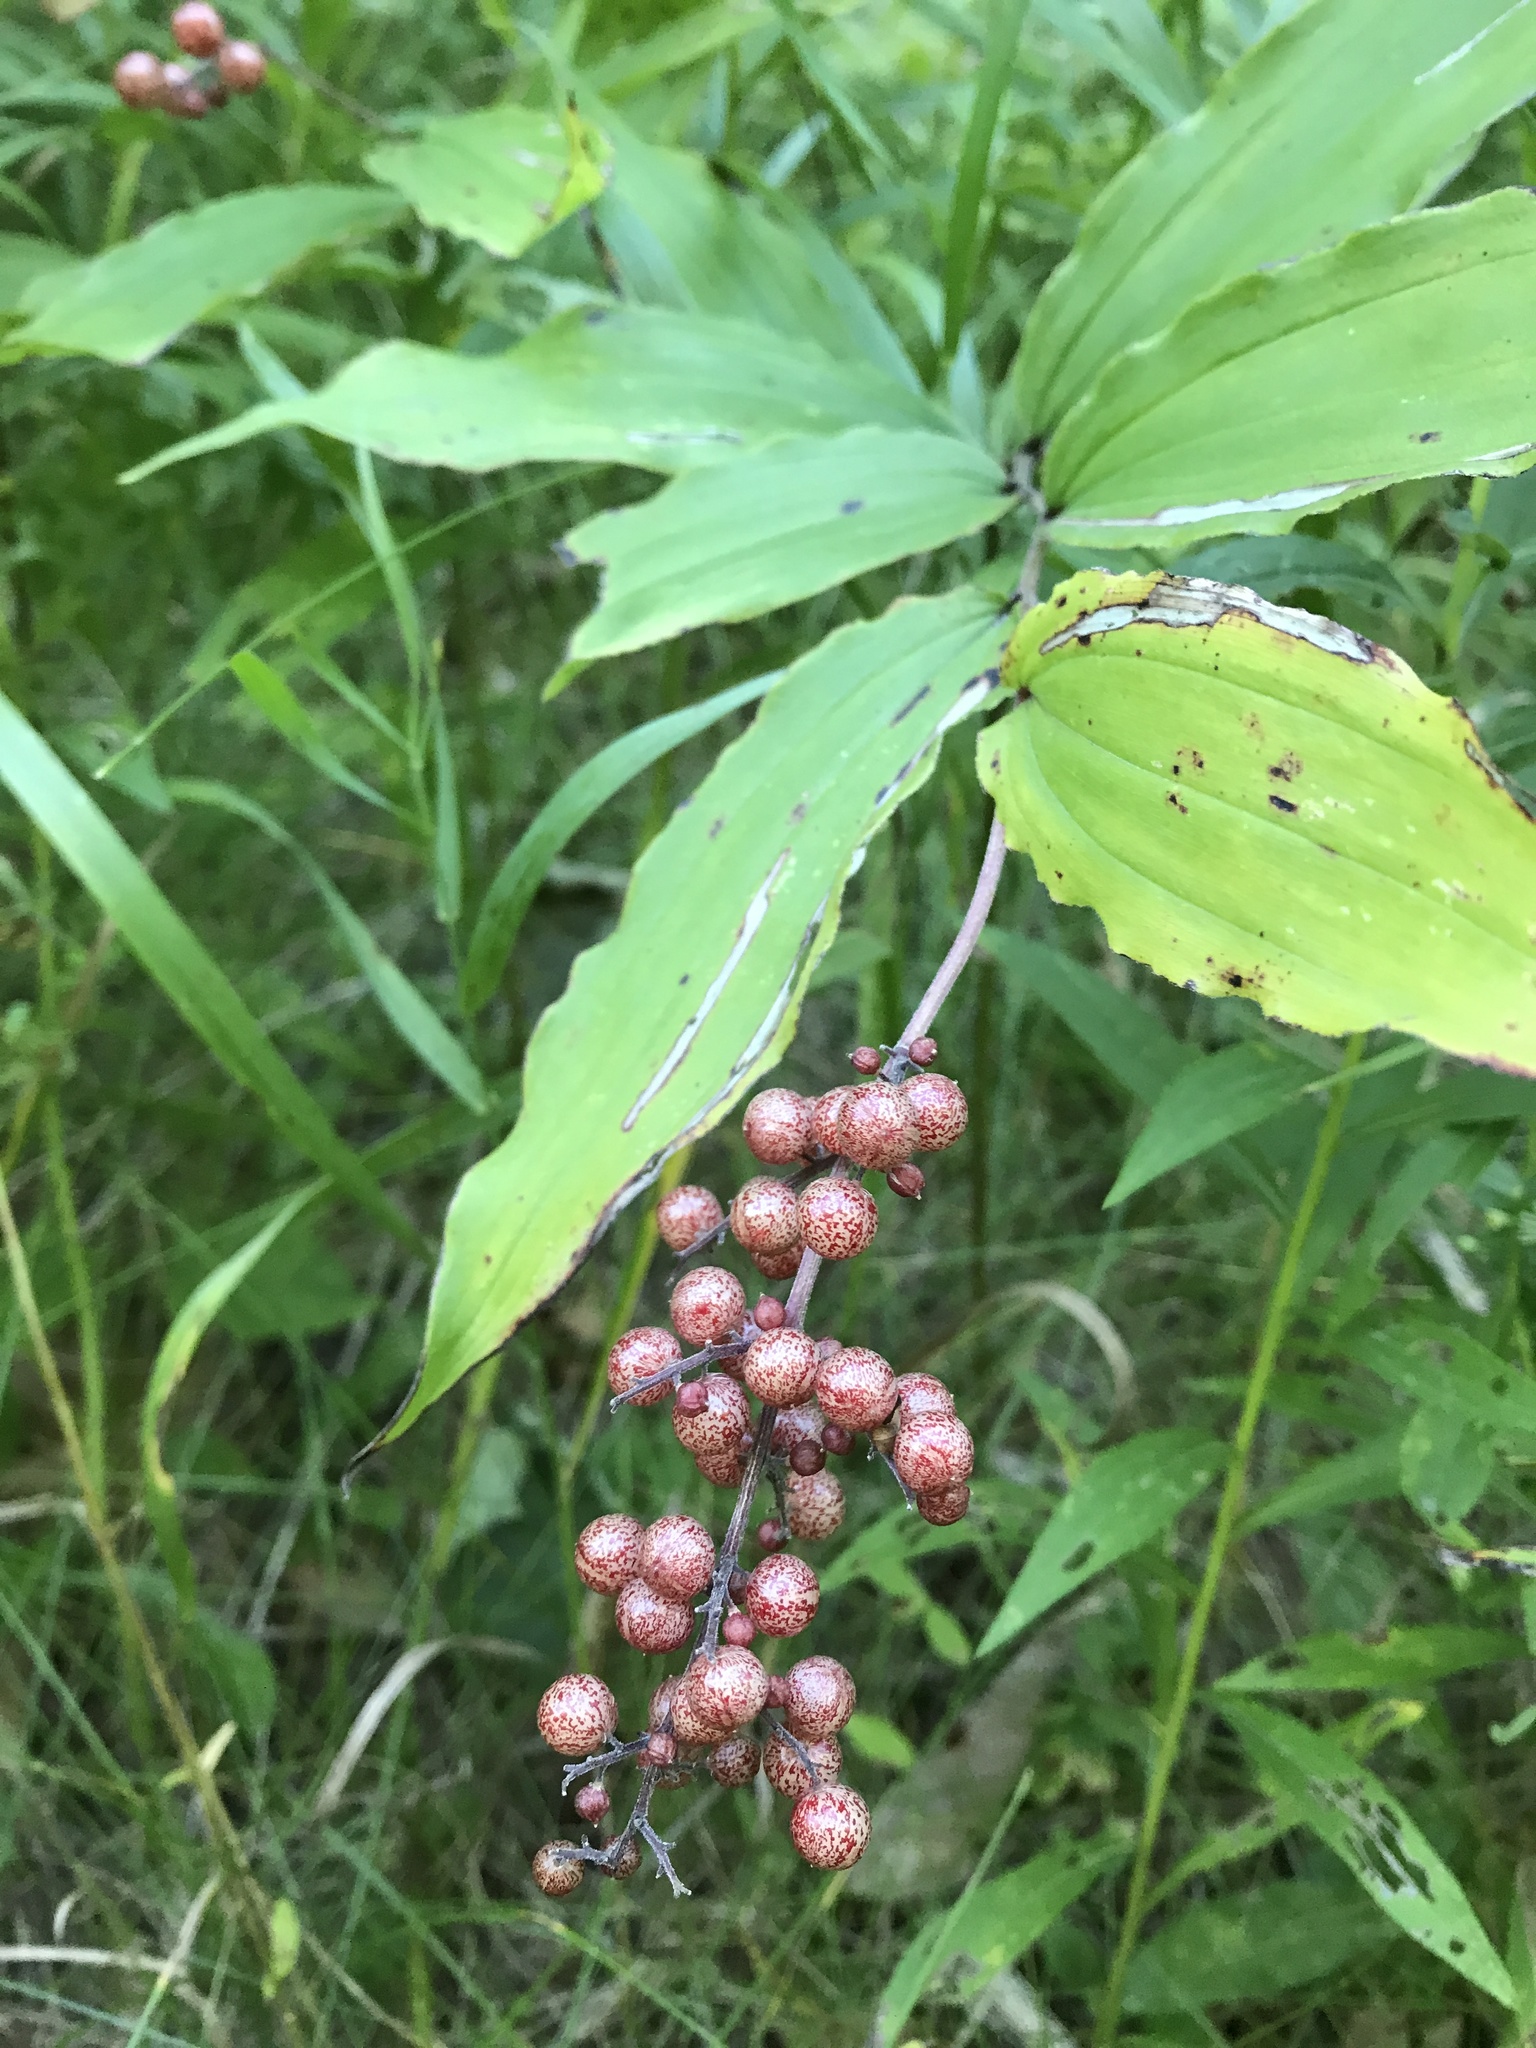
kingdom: Plantae
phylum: Tracheophyta
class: Liliopsida
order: Asparagales
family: Asparagaceae
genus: Maianthemum
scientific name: Maianthemum racemosum
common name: False spikenard
